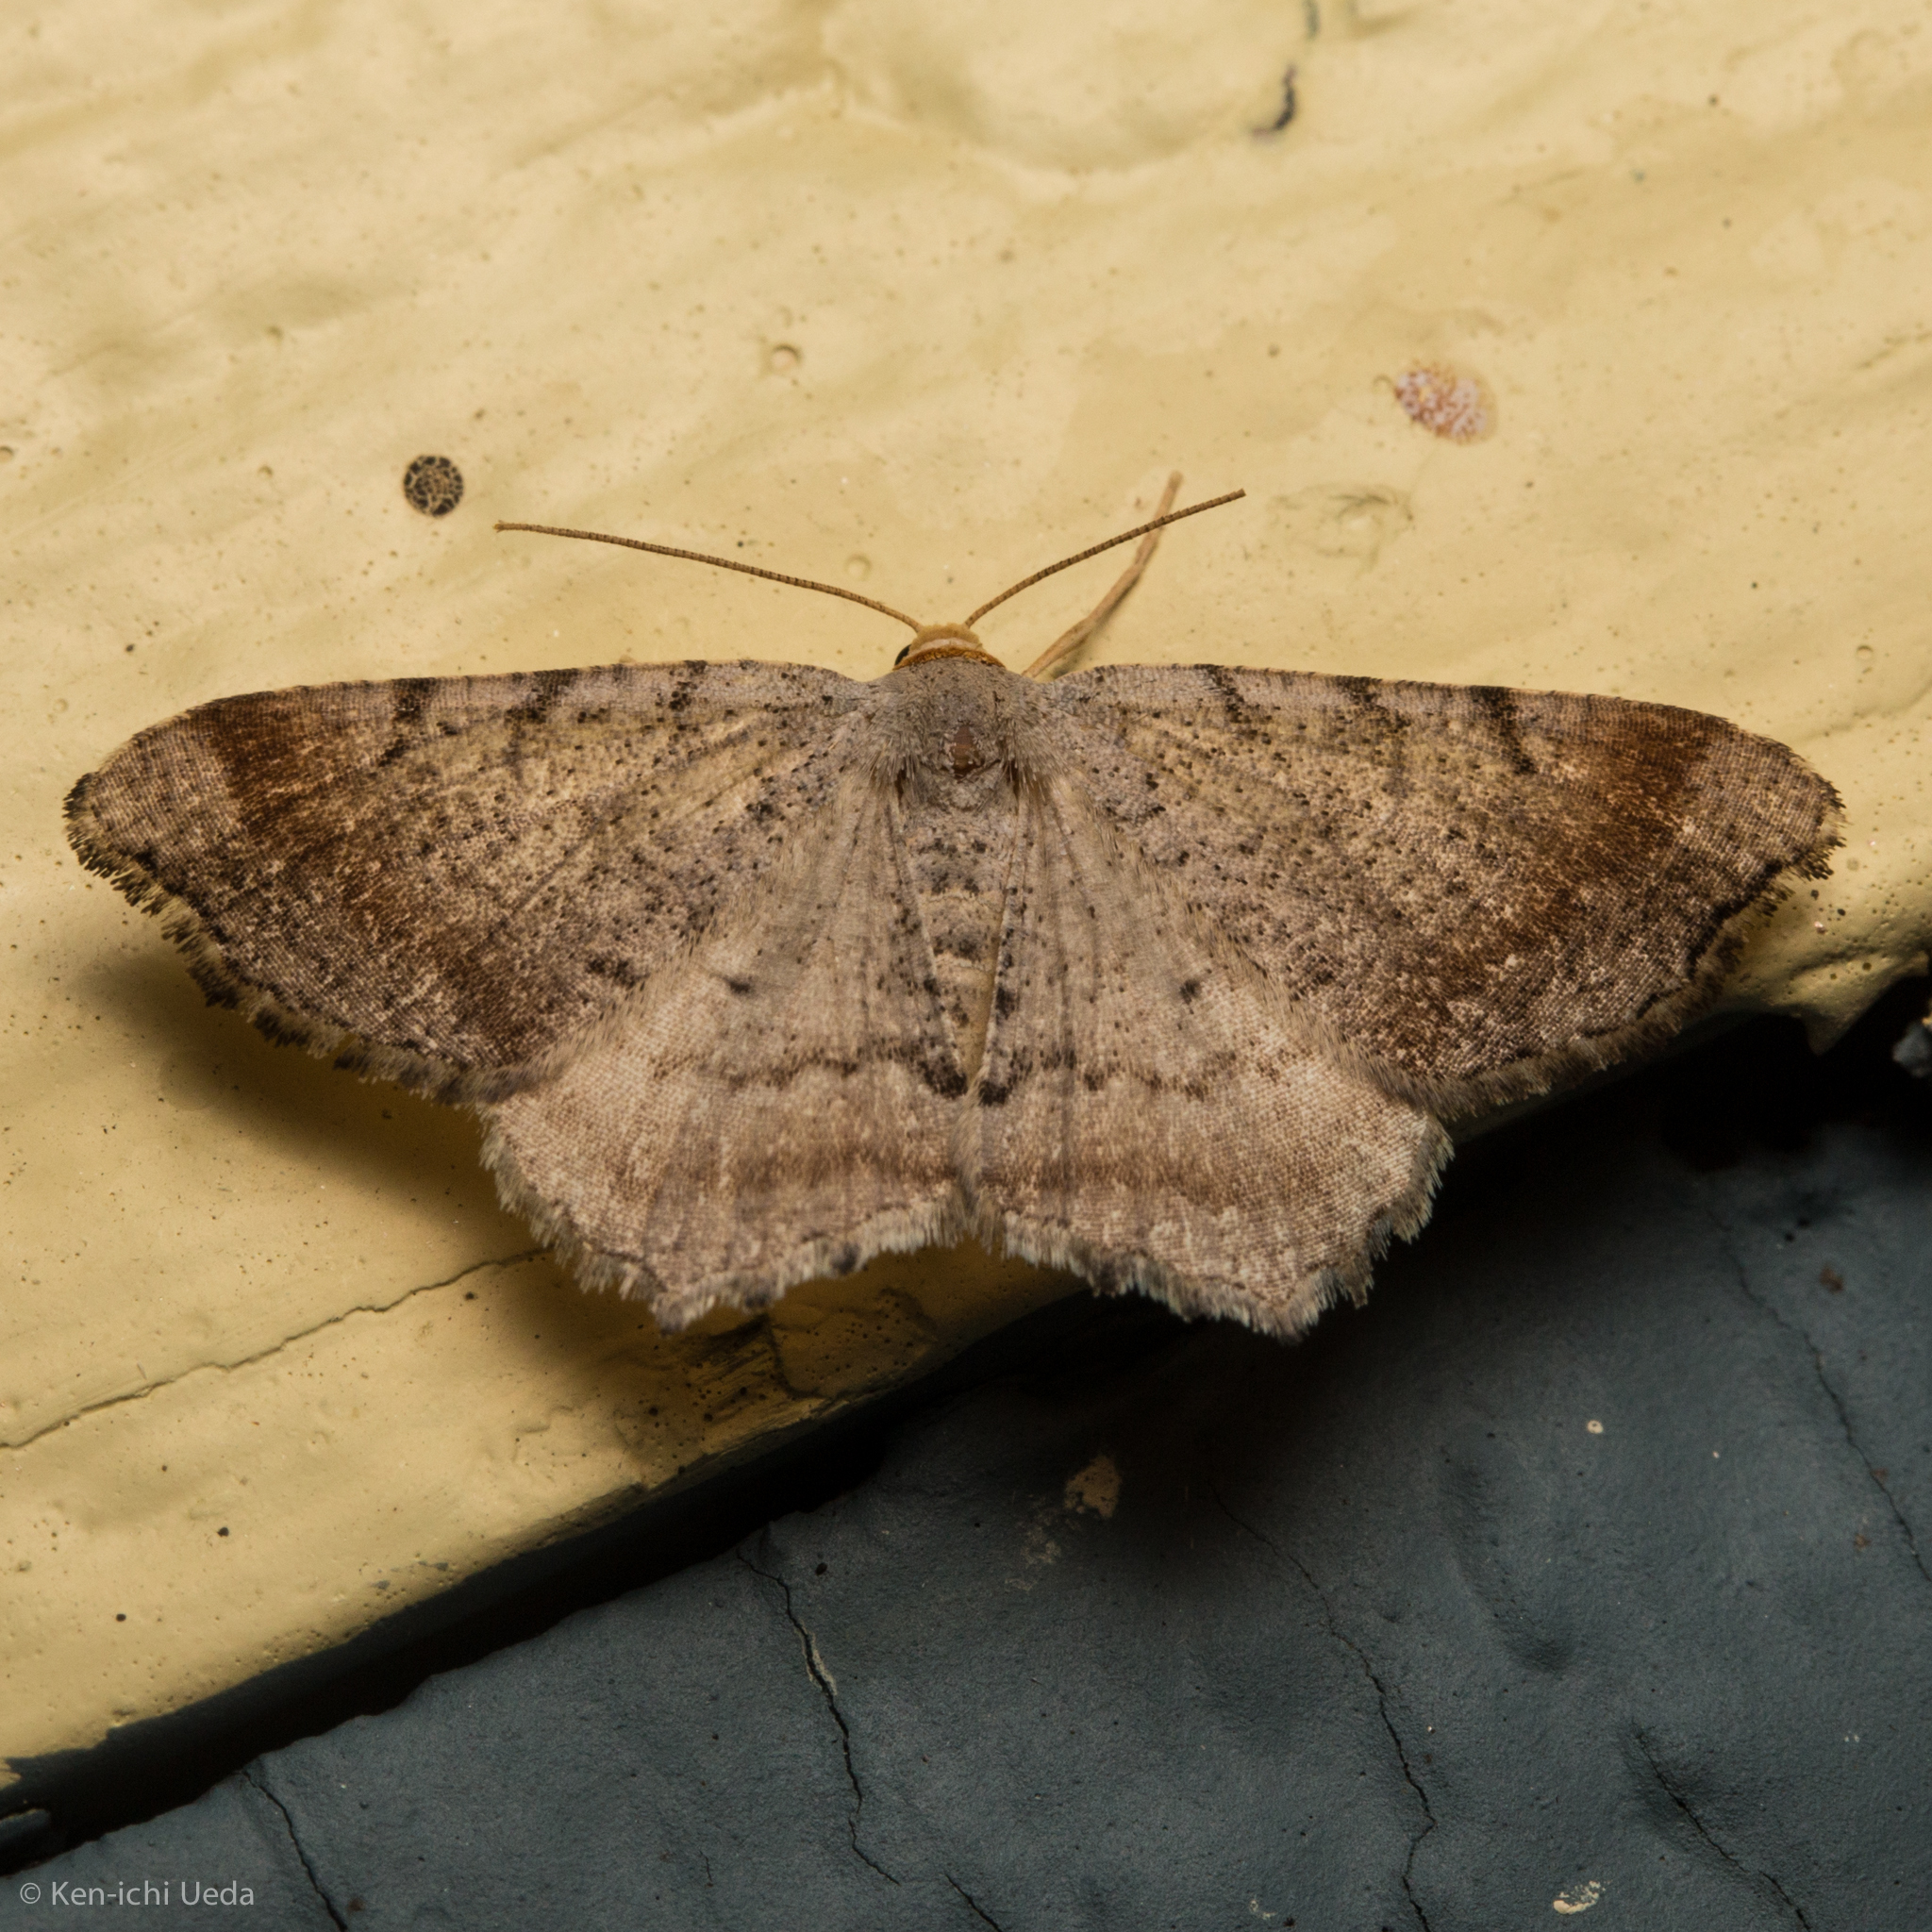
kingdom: Animalia
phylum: Arthropoda
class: Insecta
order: Lepidoptera
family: Geometridae
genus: Macaria
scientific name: Macaria minorata
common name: Minor angle moth
